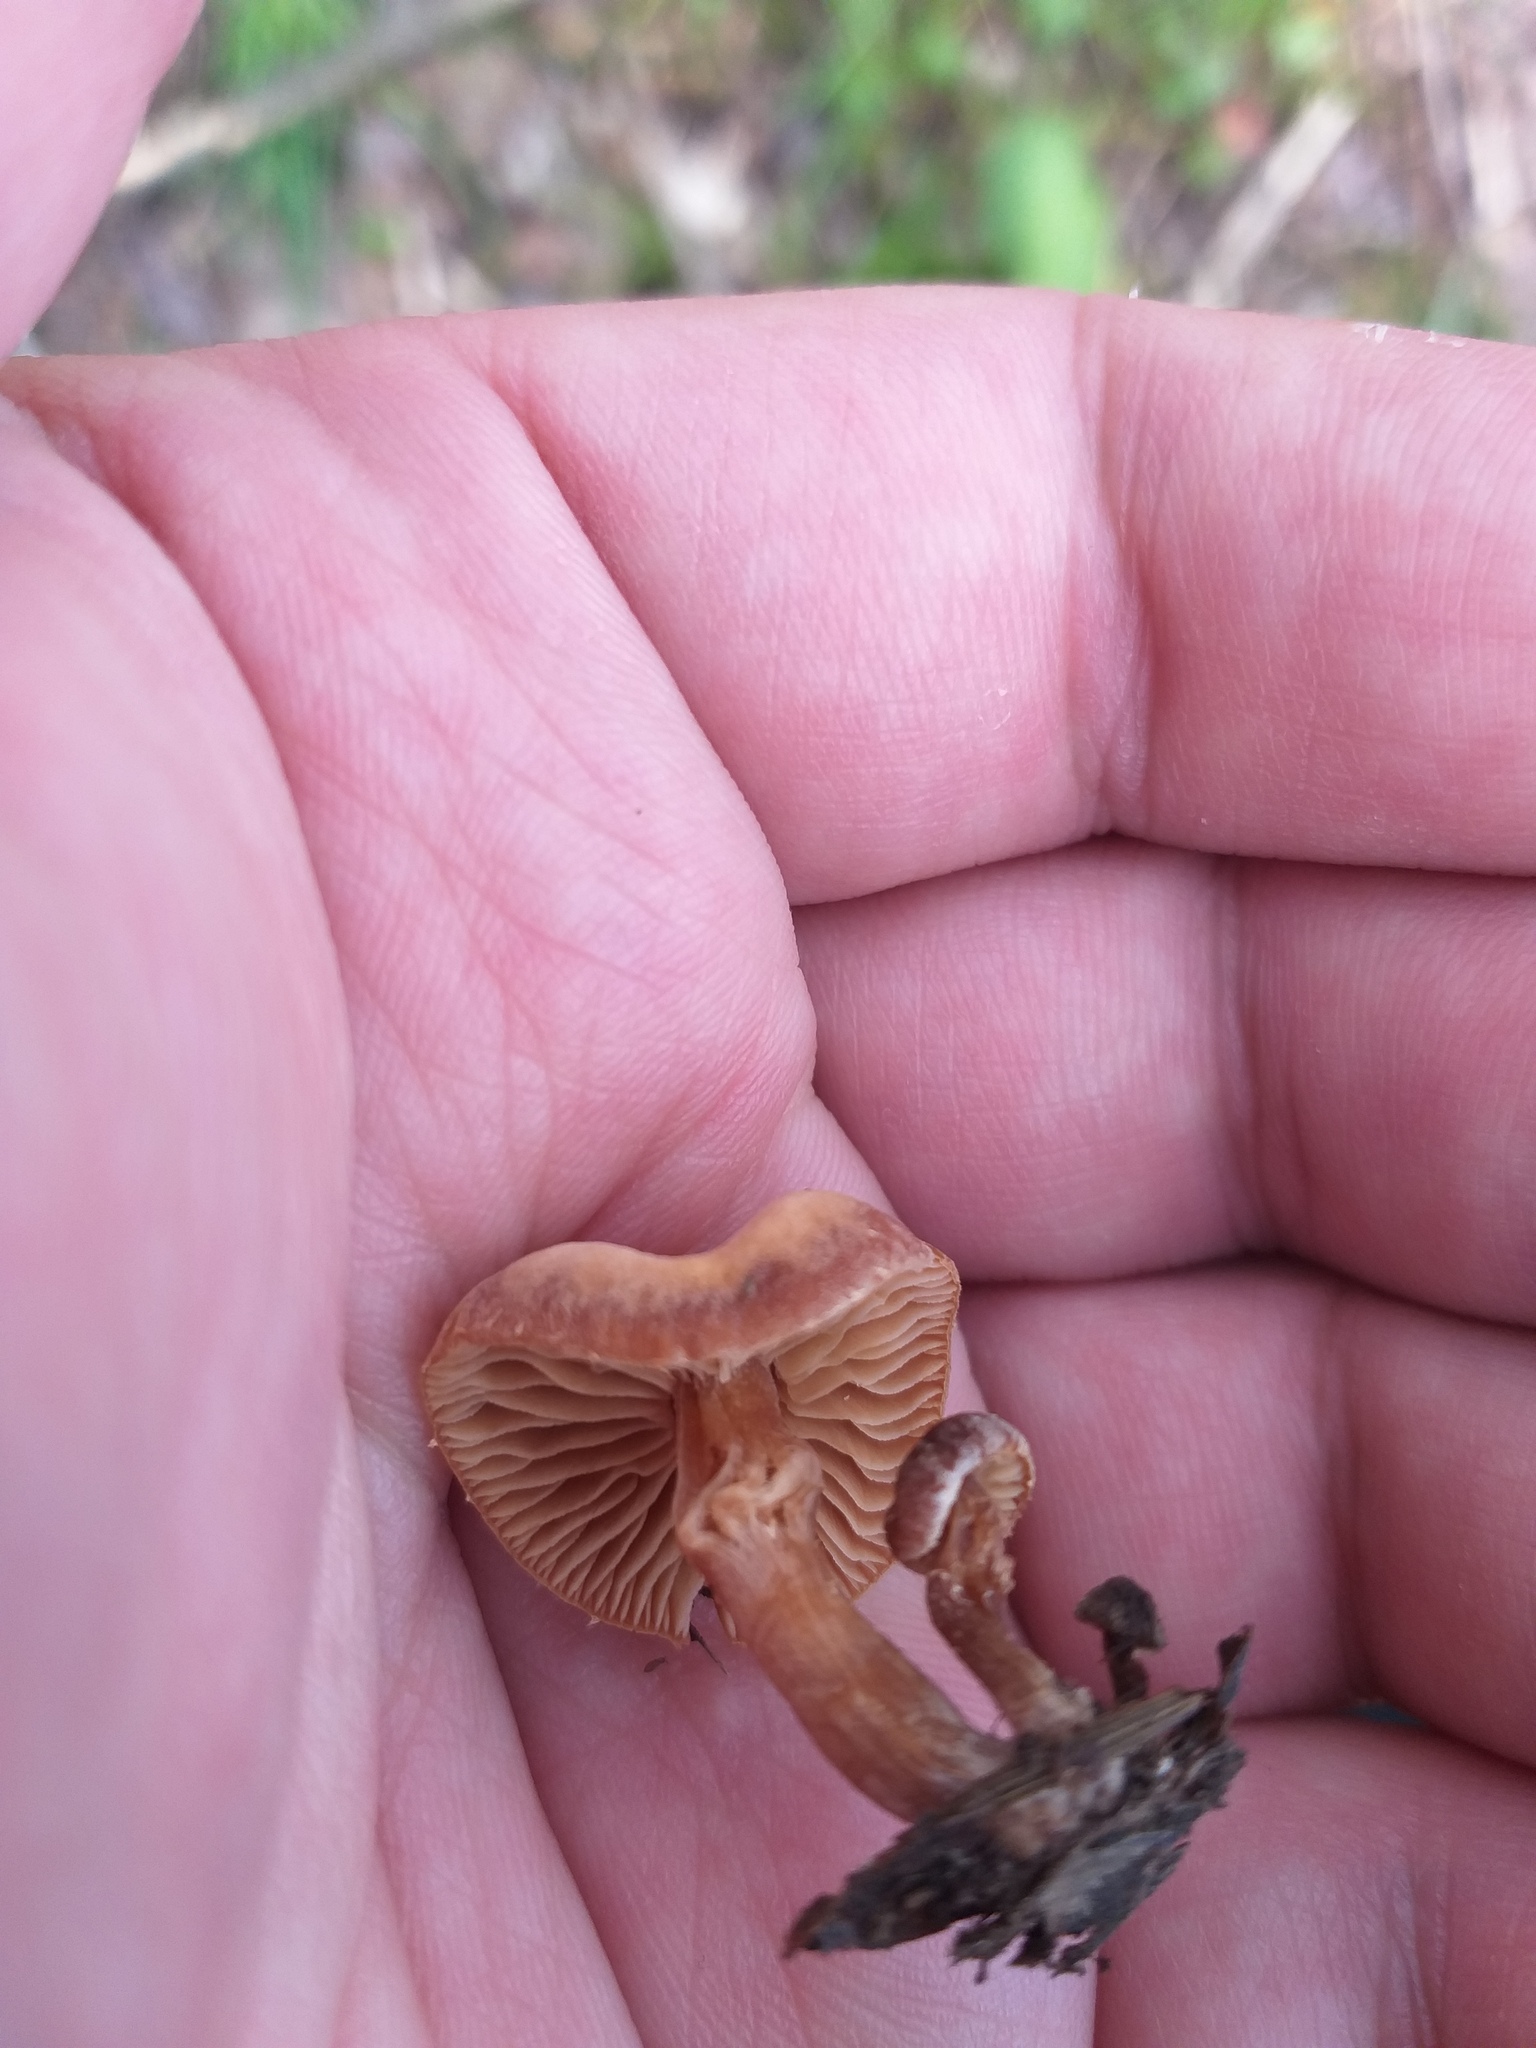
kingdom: Fungi
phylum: Basidiomycota
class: Agaricomycetes
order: Agaricales
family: Tubariaceae
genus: Tubaria
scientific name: Tubaria furfuracea
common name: Scurfy twiglet
